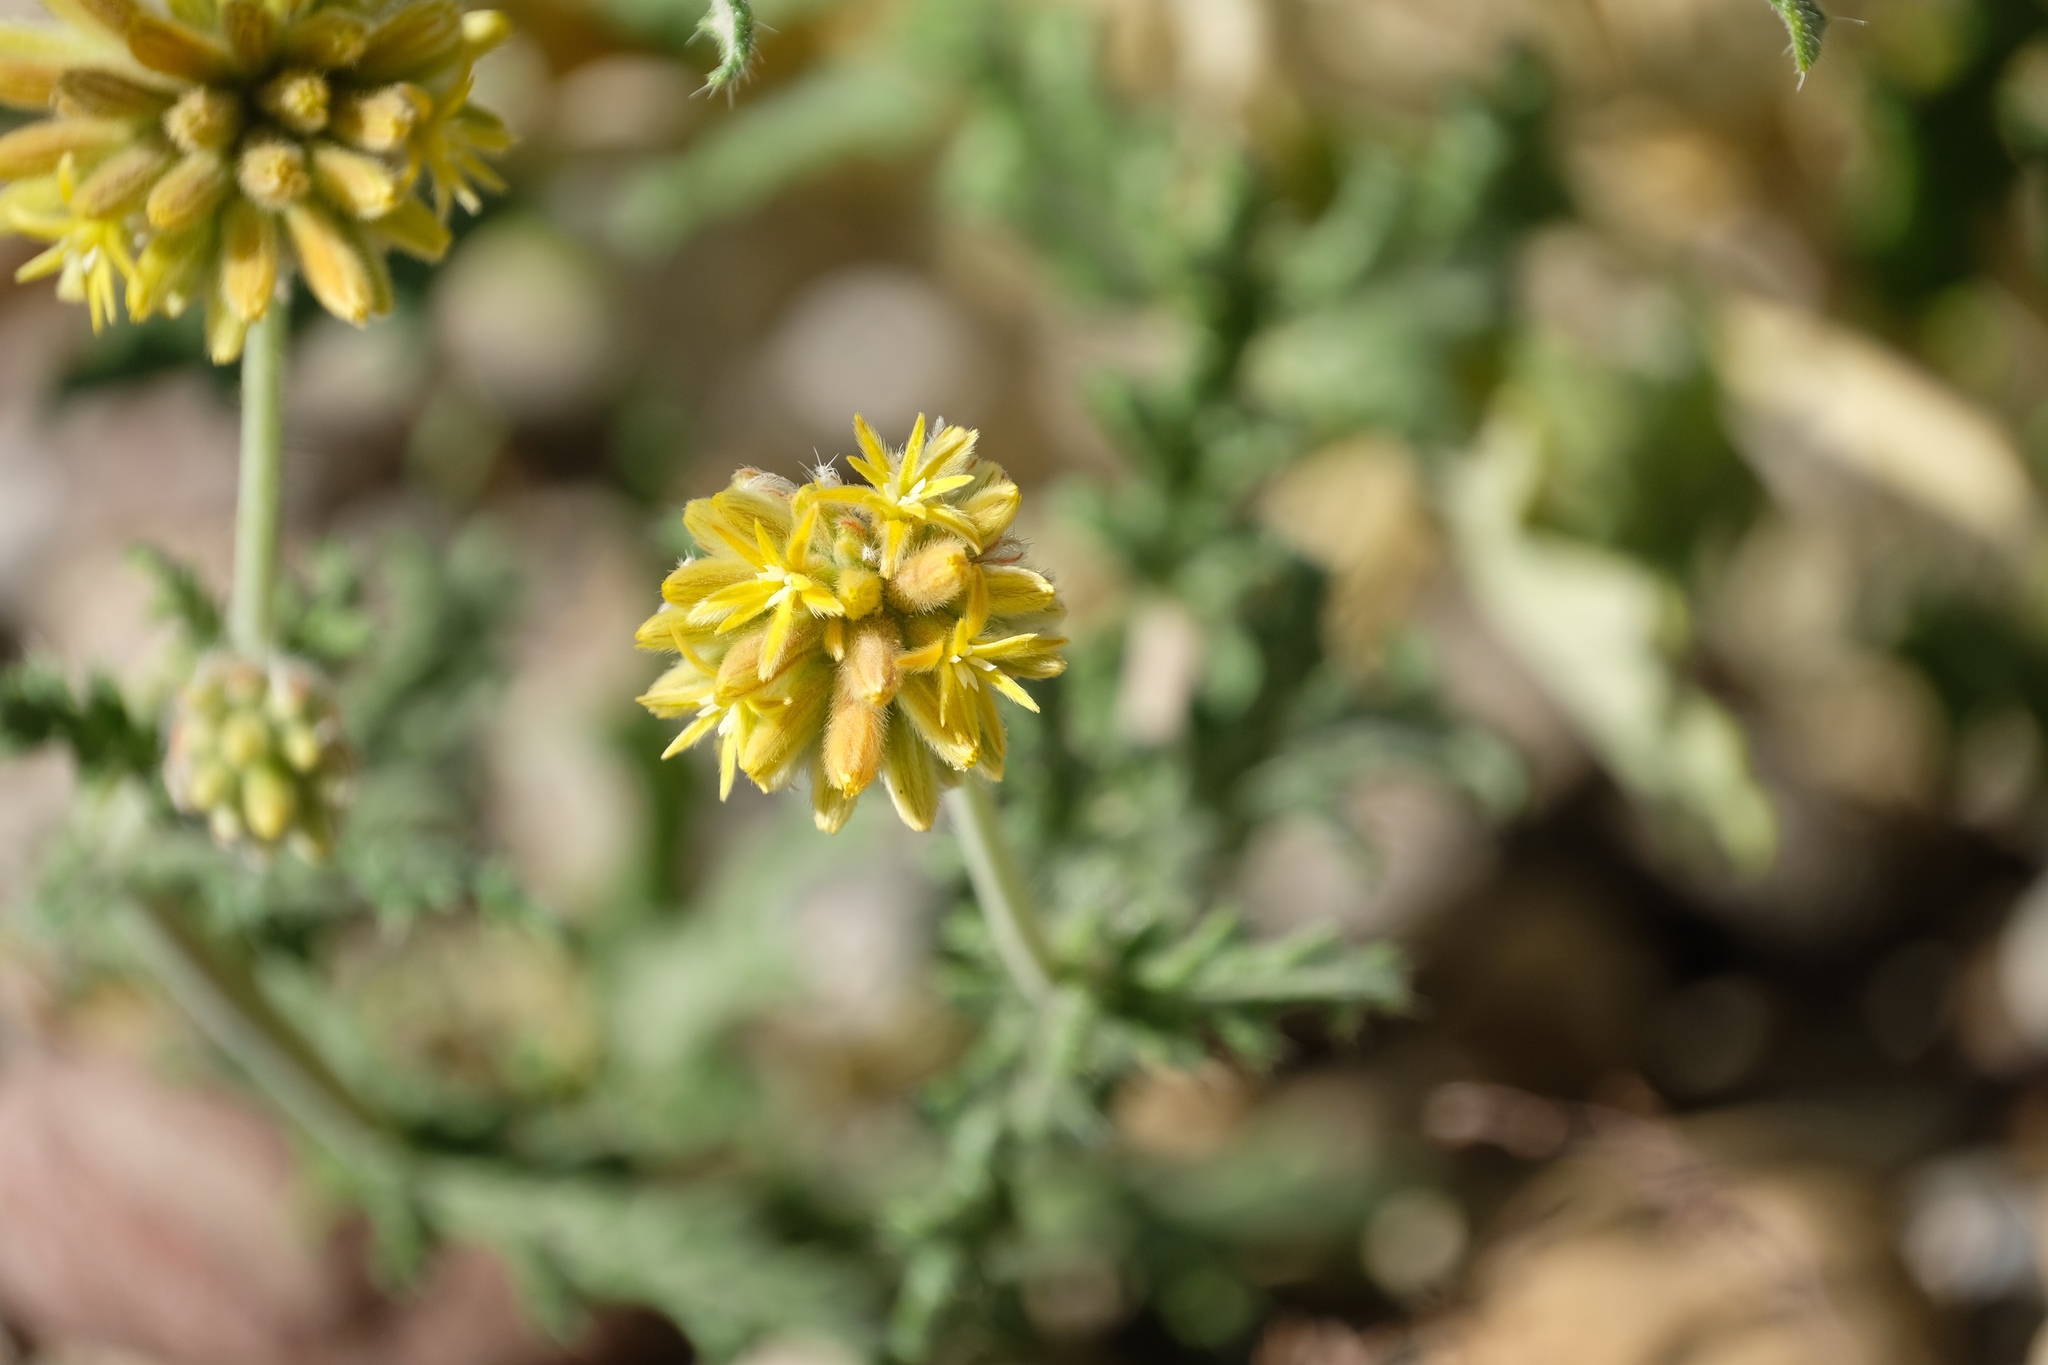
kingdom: Plantae
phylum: Tracheophyta
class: Magnoliopsida
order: Cornales
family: Loasaceae
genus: Cevallia
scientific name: Cevallia sinuata
